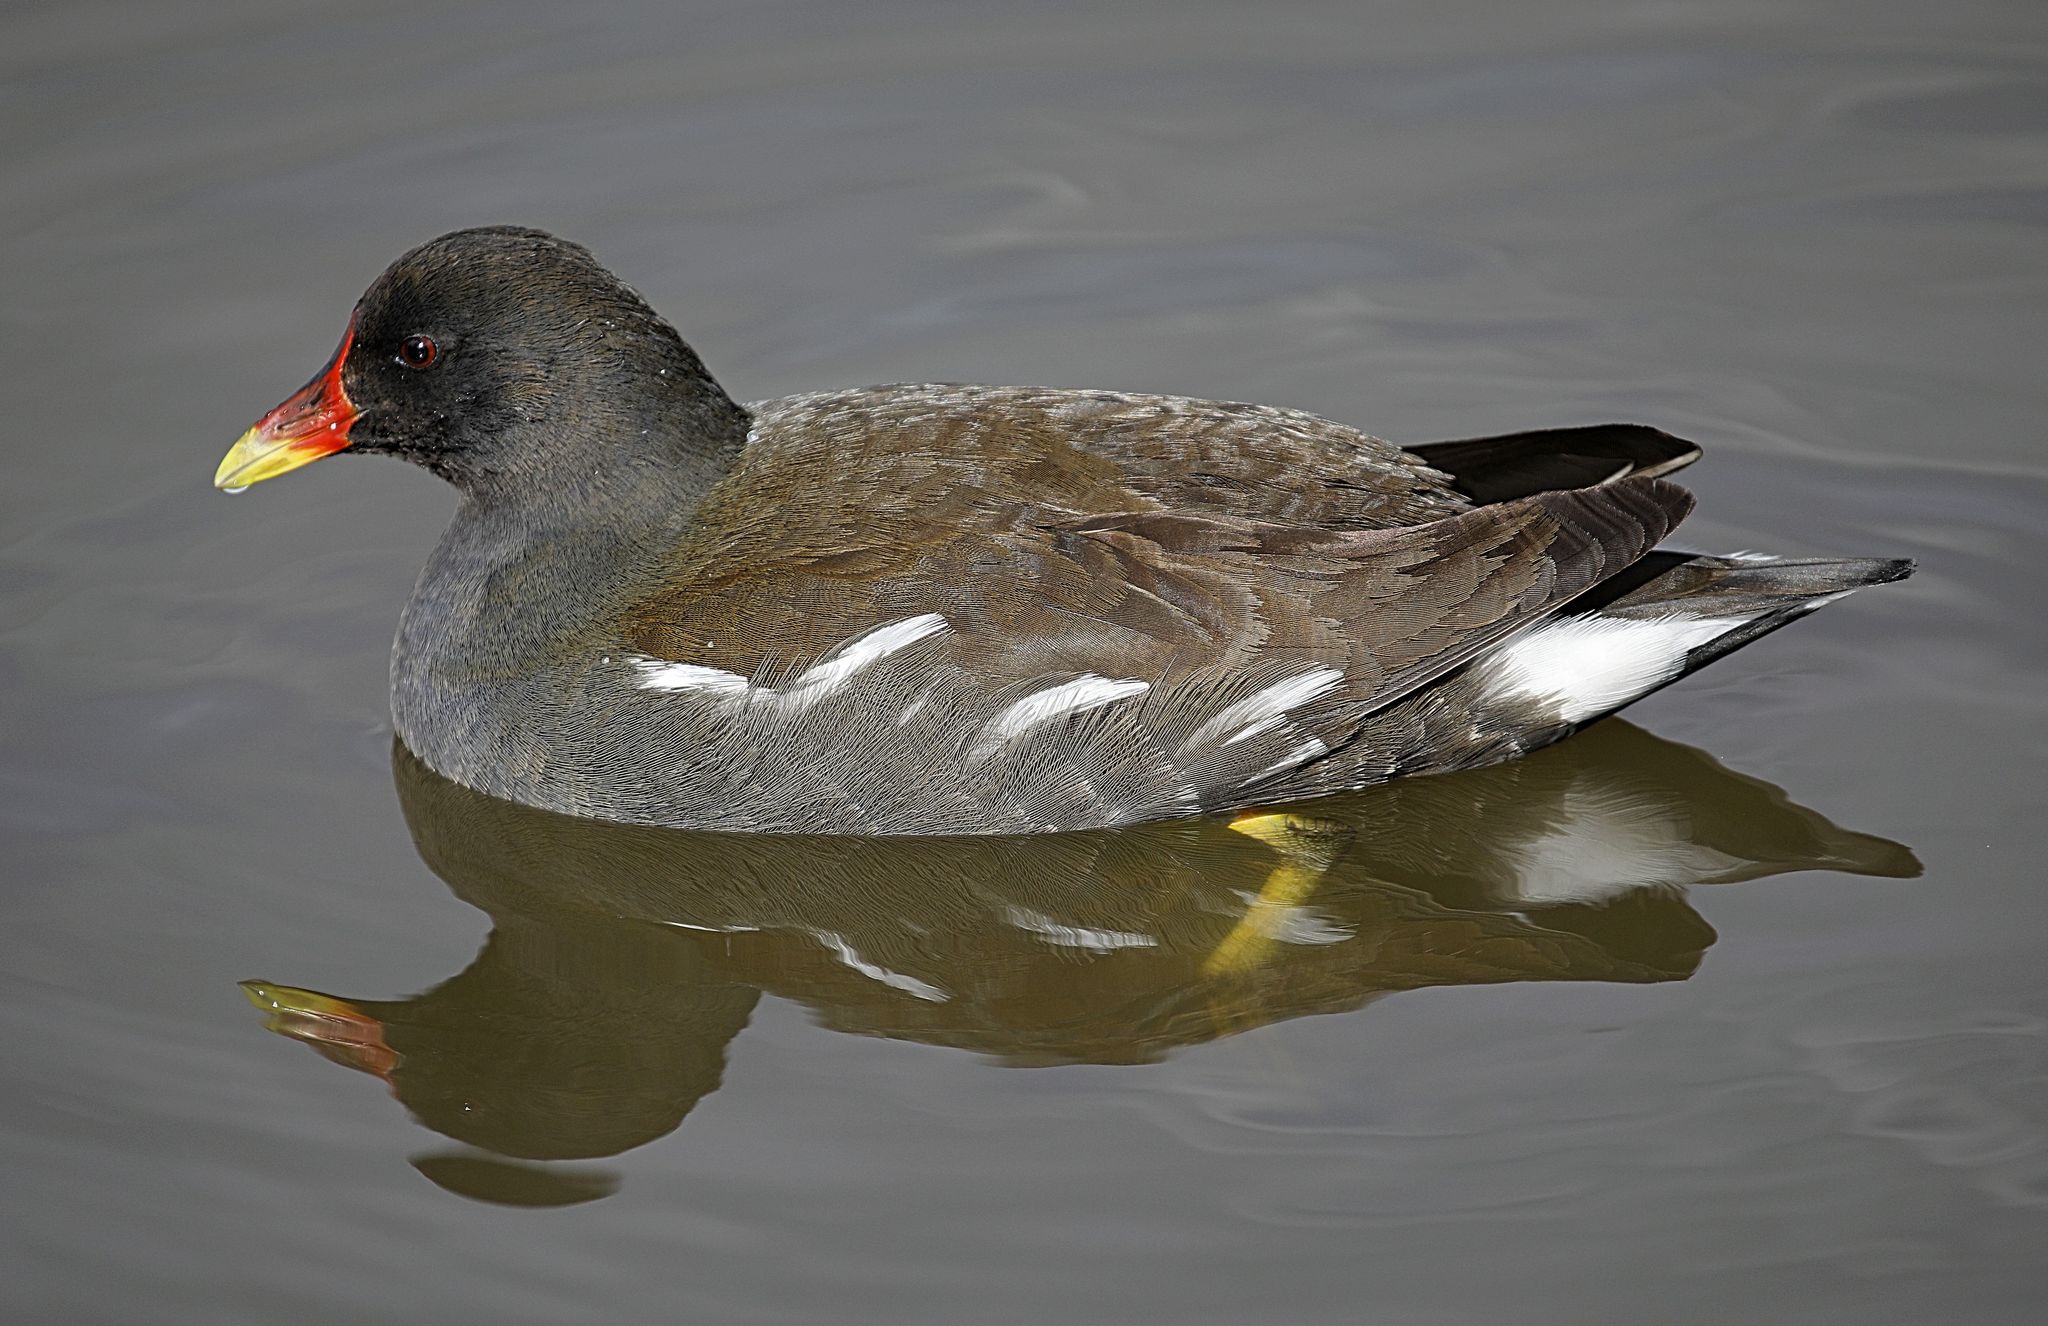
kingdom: Animalia
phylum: Chordata
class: Aves
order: Gruiformes
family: Rallidae
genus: Gallinula
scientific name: Gallinula chloropus
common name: Common moorhen
